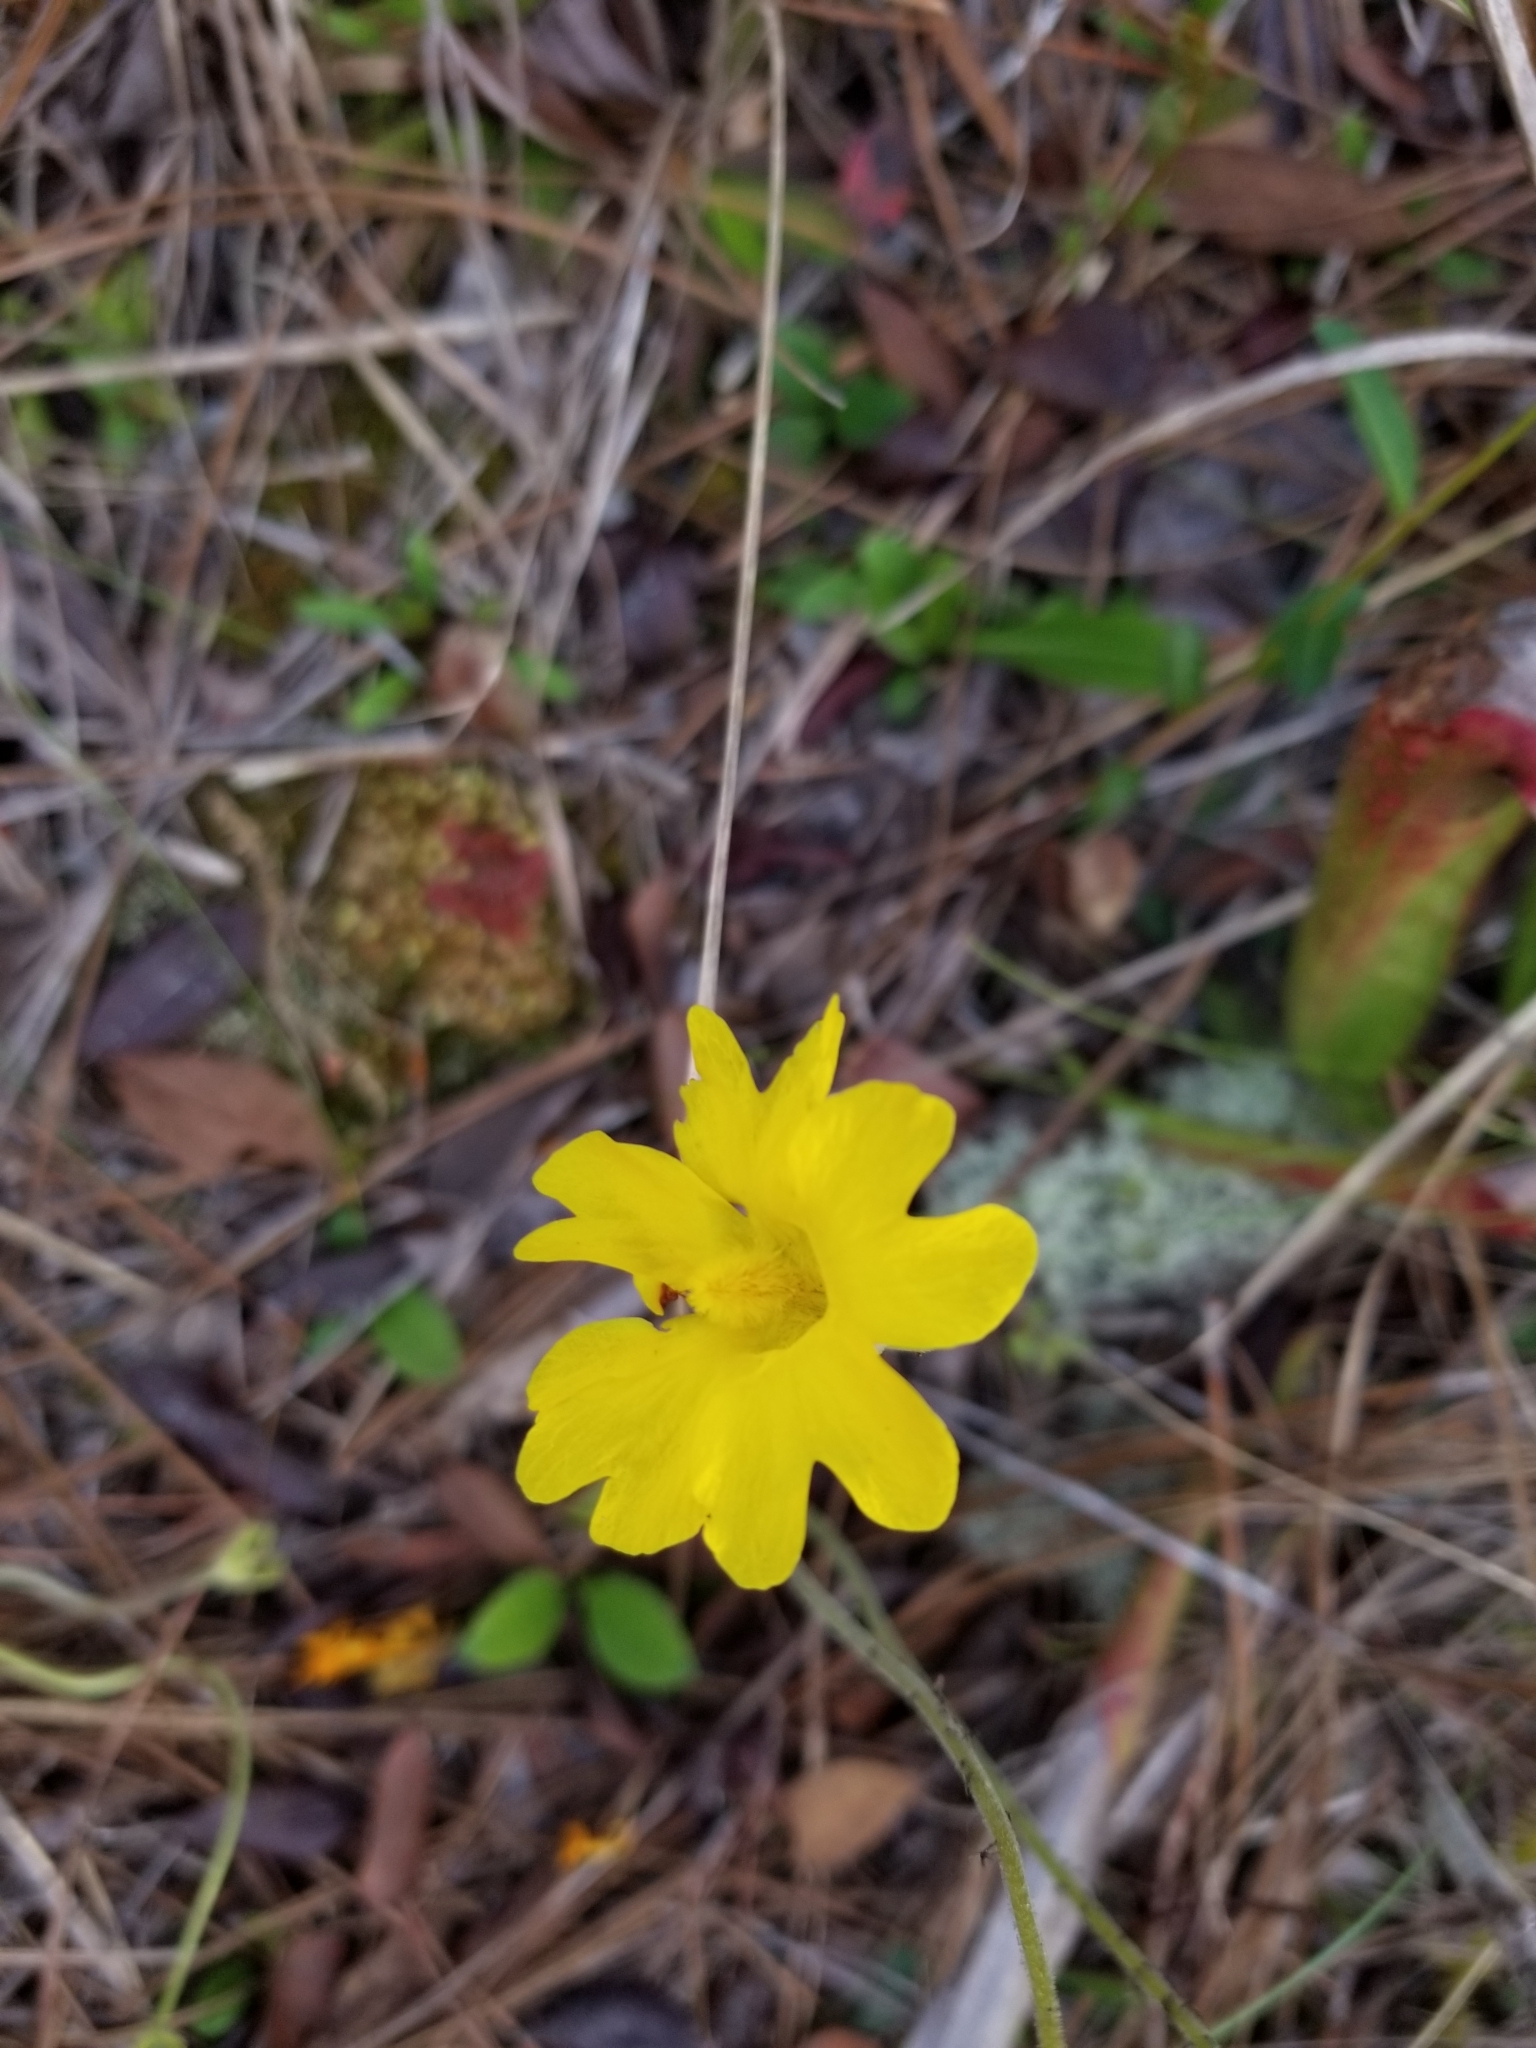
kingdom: Plantae
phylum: Tracheophyta
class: Magnoliopsida
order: Lamiales
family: Lentibulariaceae
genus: Pinguicula
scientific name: Pinguicula lutea
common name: Yellow butterwort
